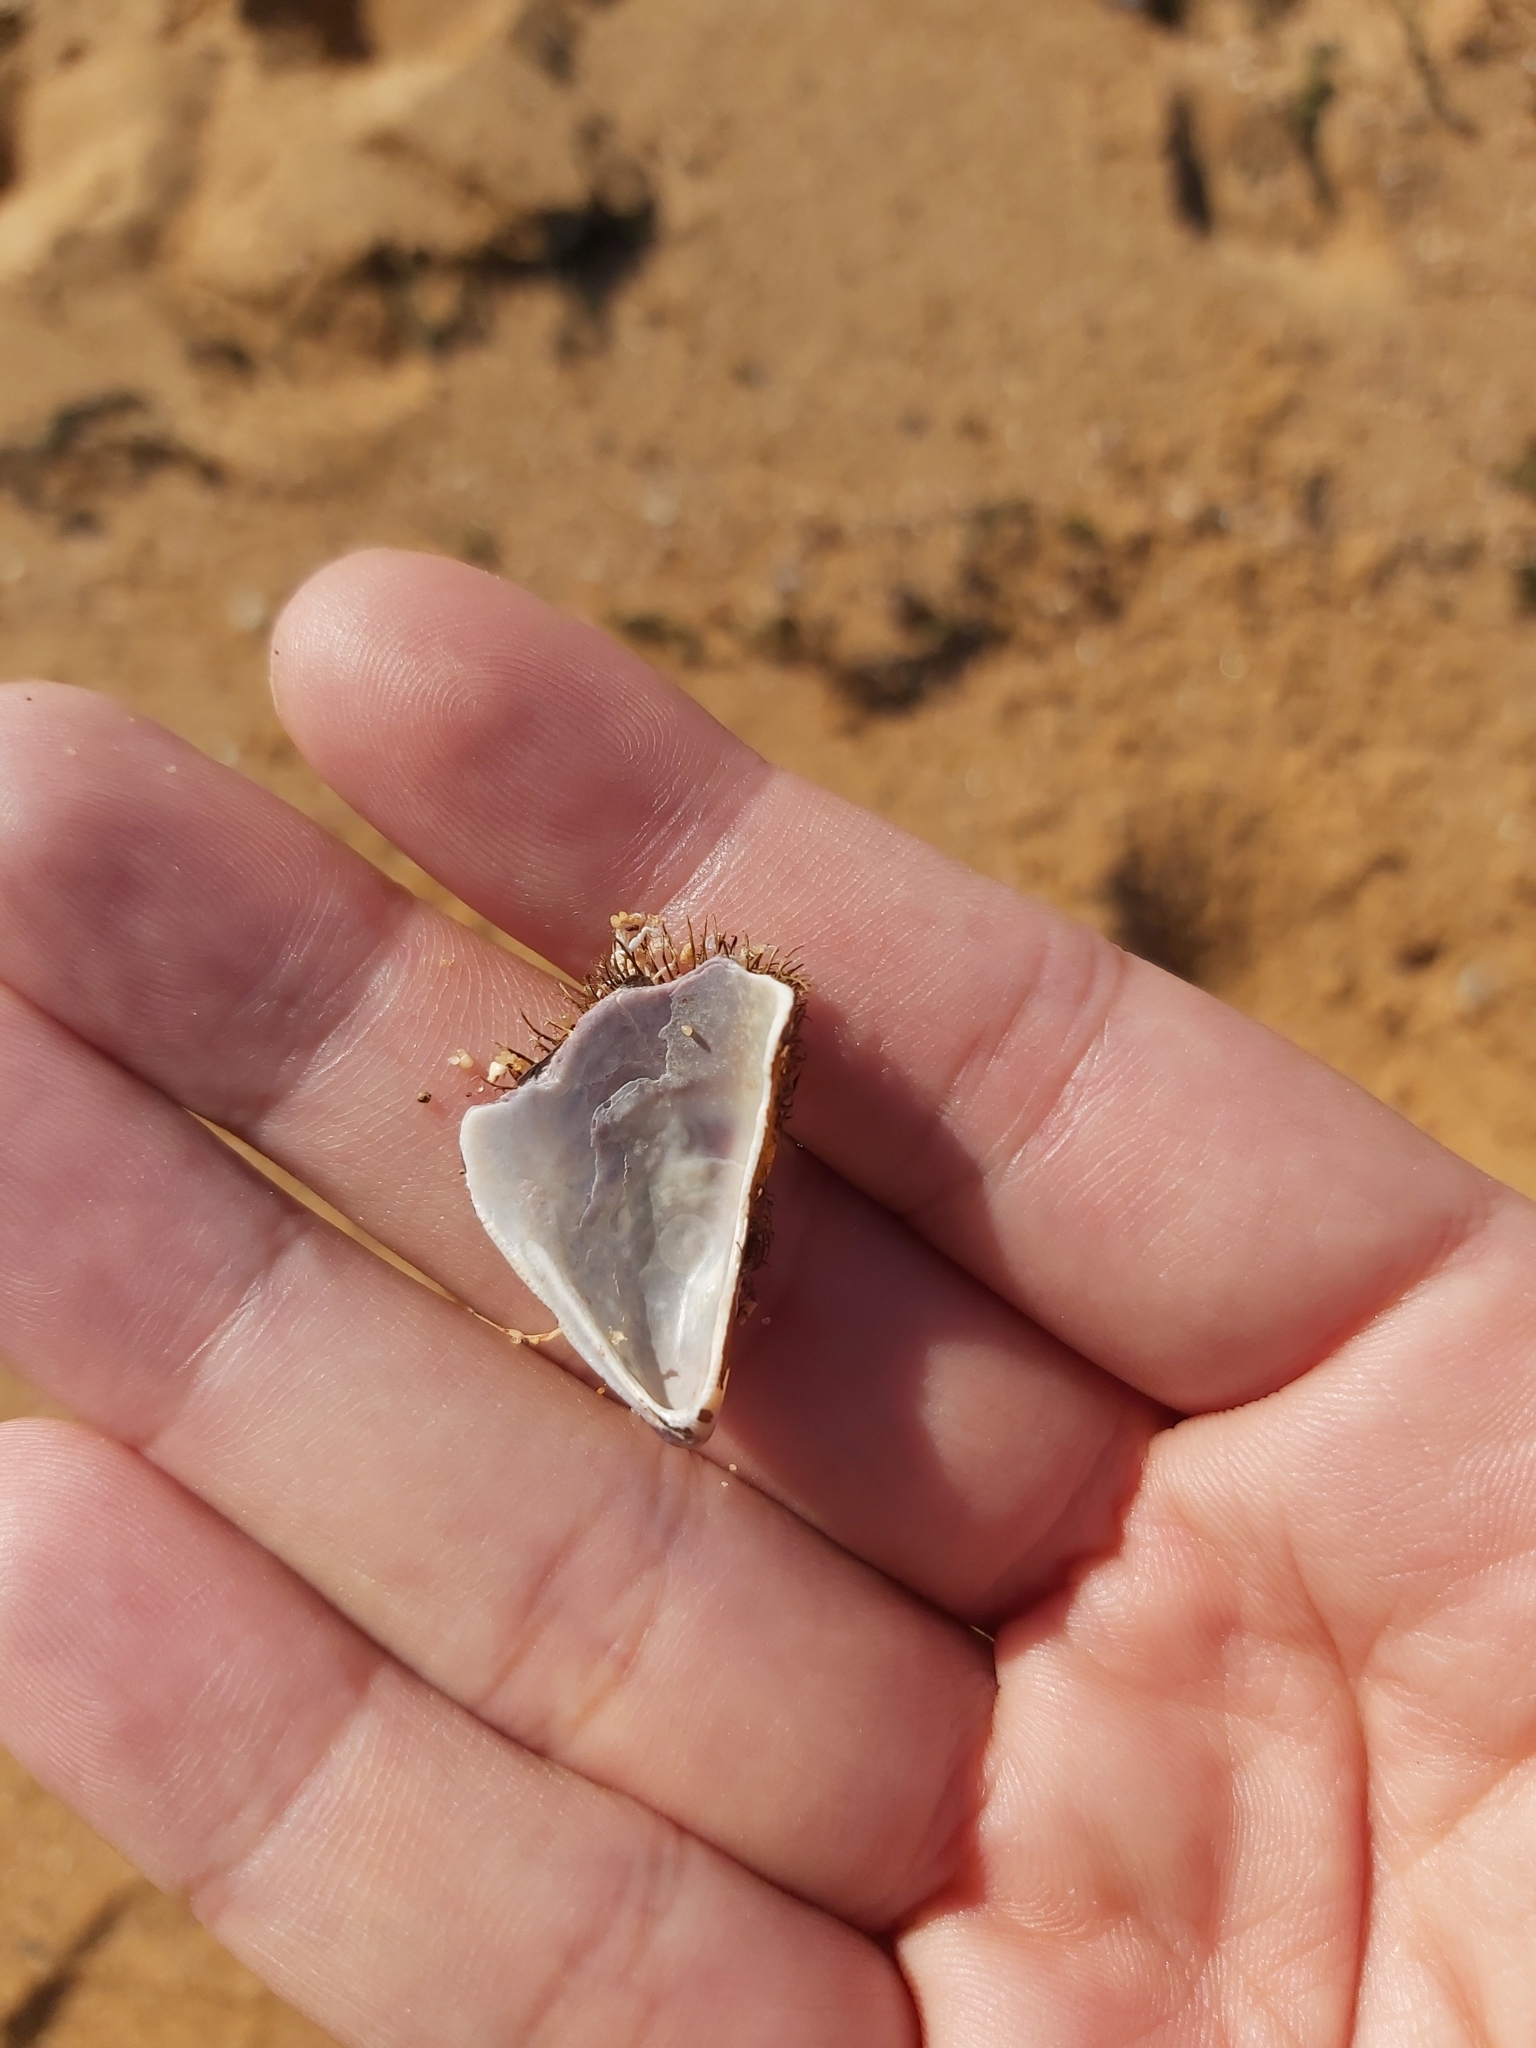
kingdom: Animalia
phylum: Mollusca
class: Bivalvia
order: Mytilida
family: Mytilidae
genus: Trichomya
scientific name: Trichomya hirsuta
